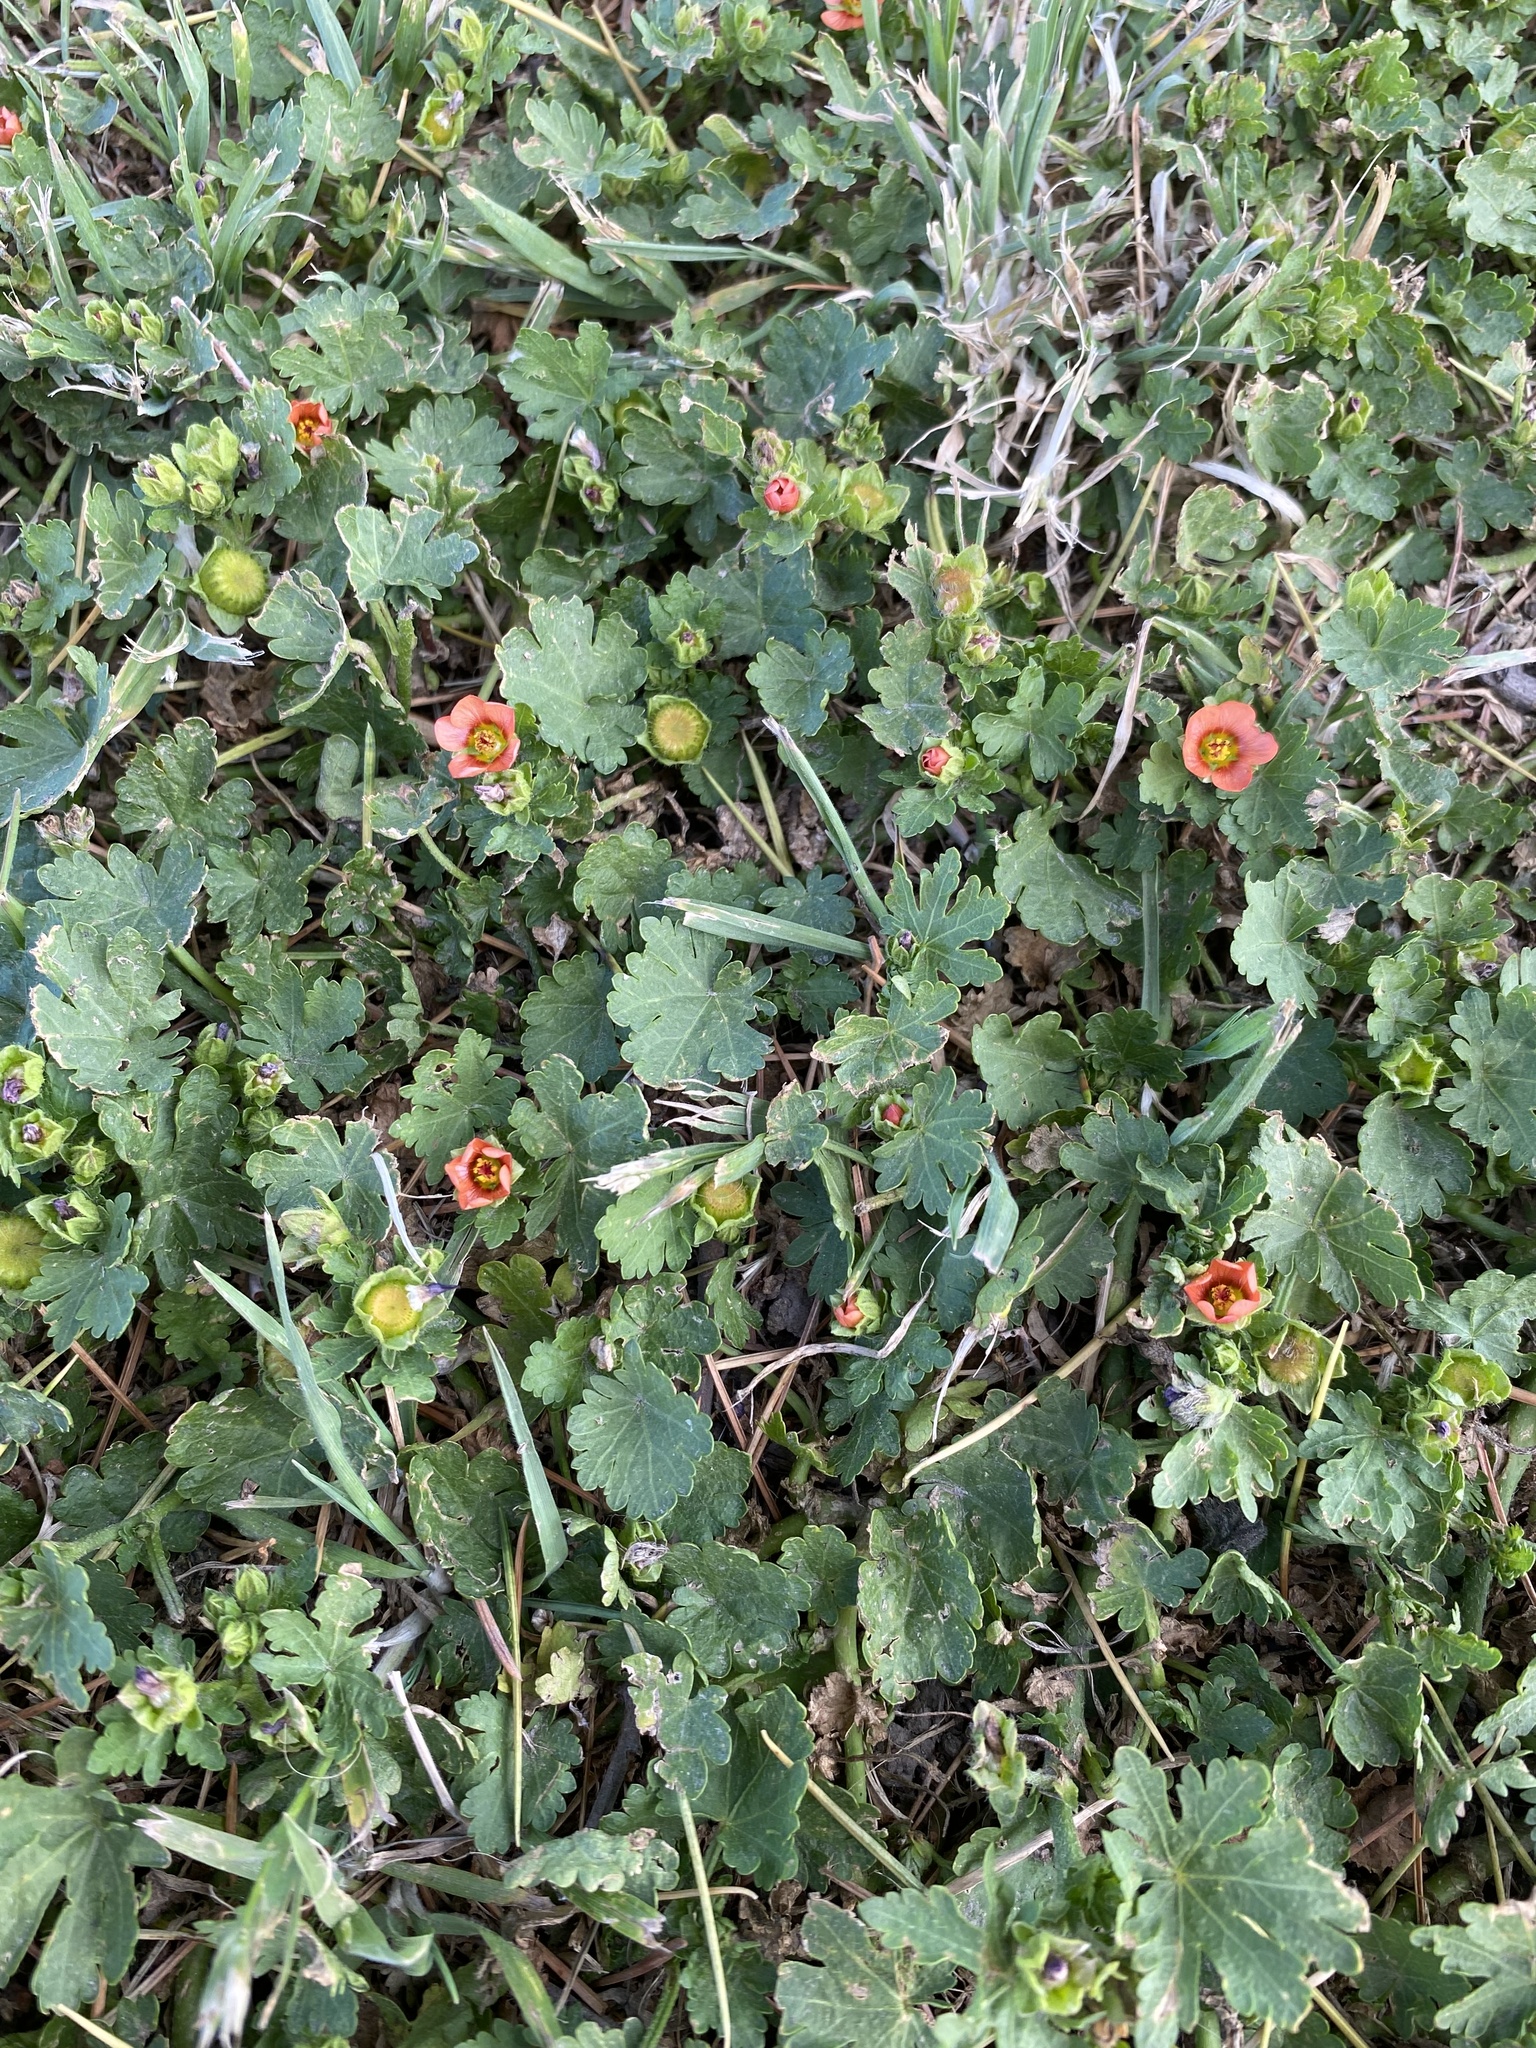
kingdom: Plantae
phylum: Tracheophyta
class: Magnoliopsida
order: Malvales
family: Malvaceae
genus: Modiola
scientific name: Modiola caroliniana
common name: Carolina bristlemallow
